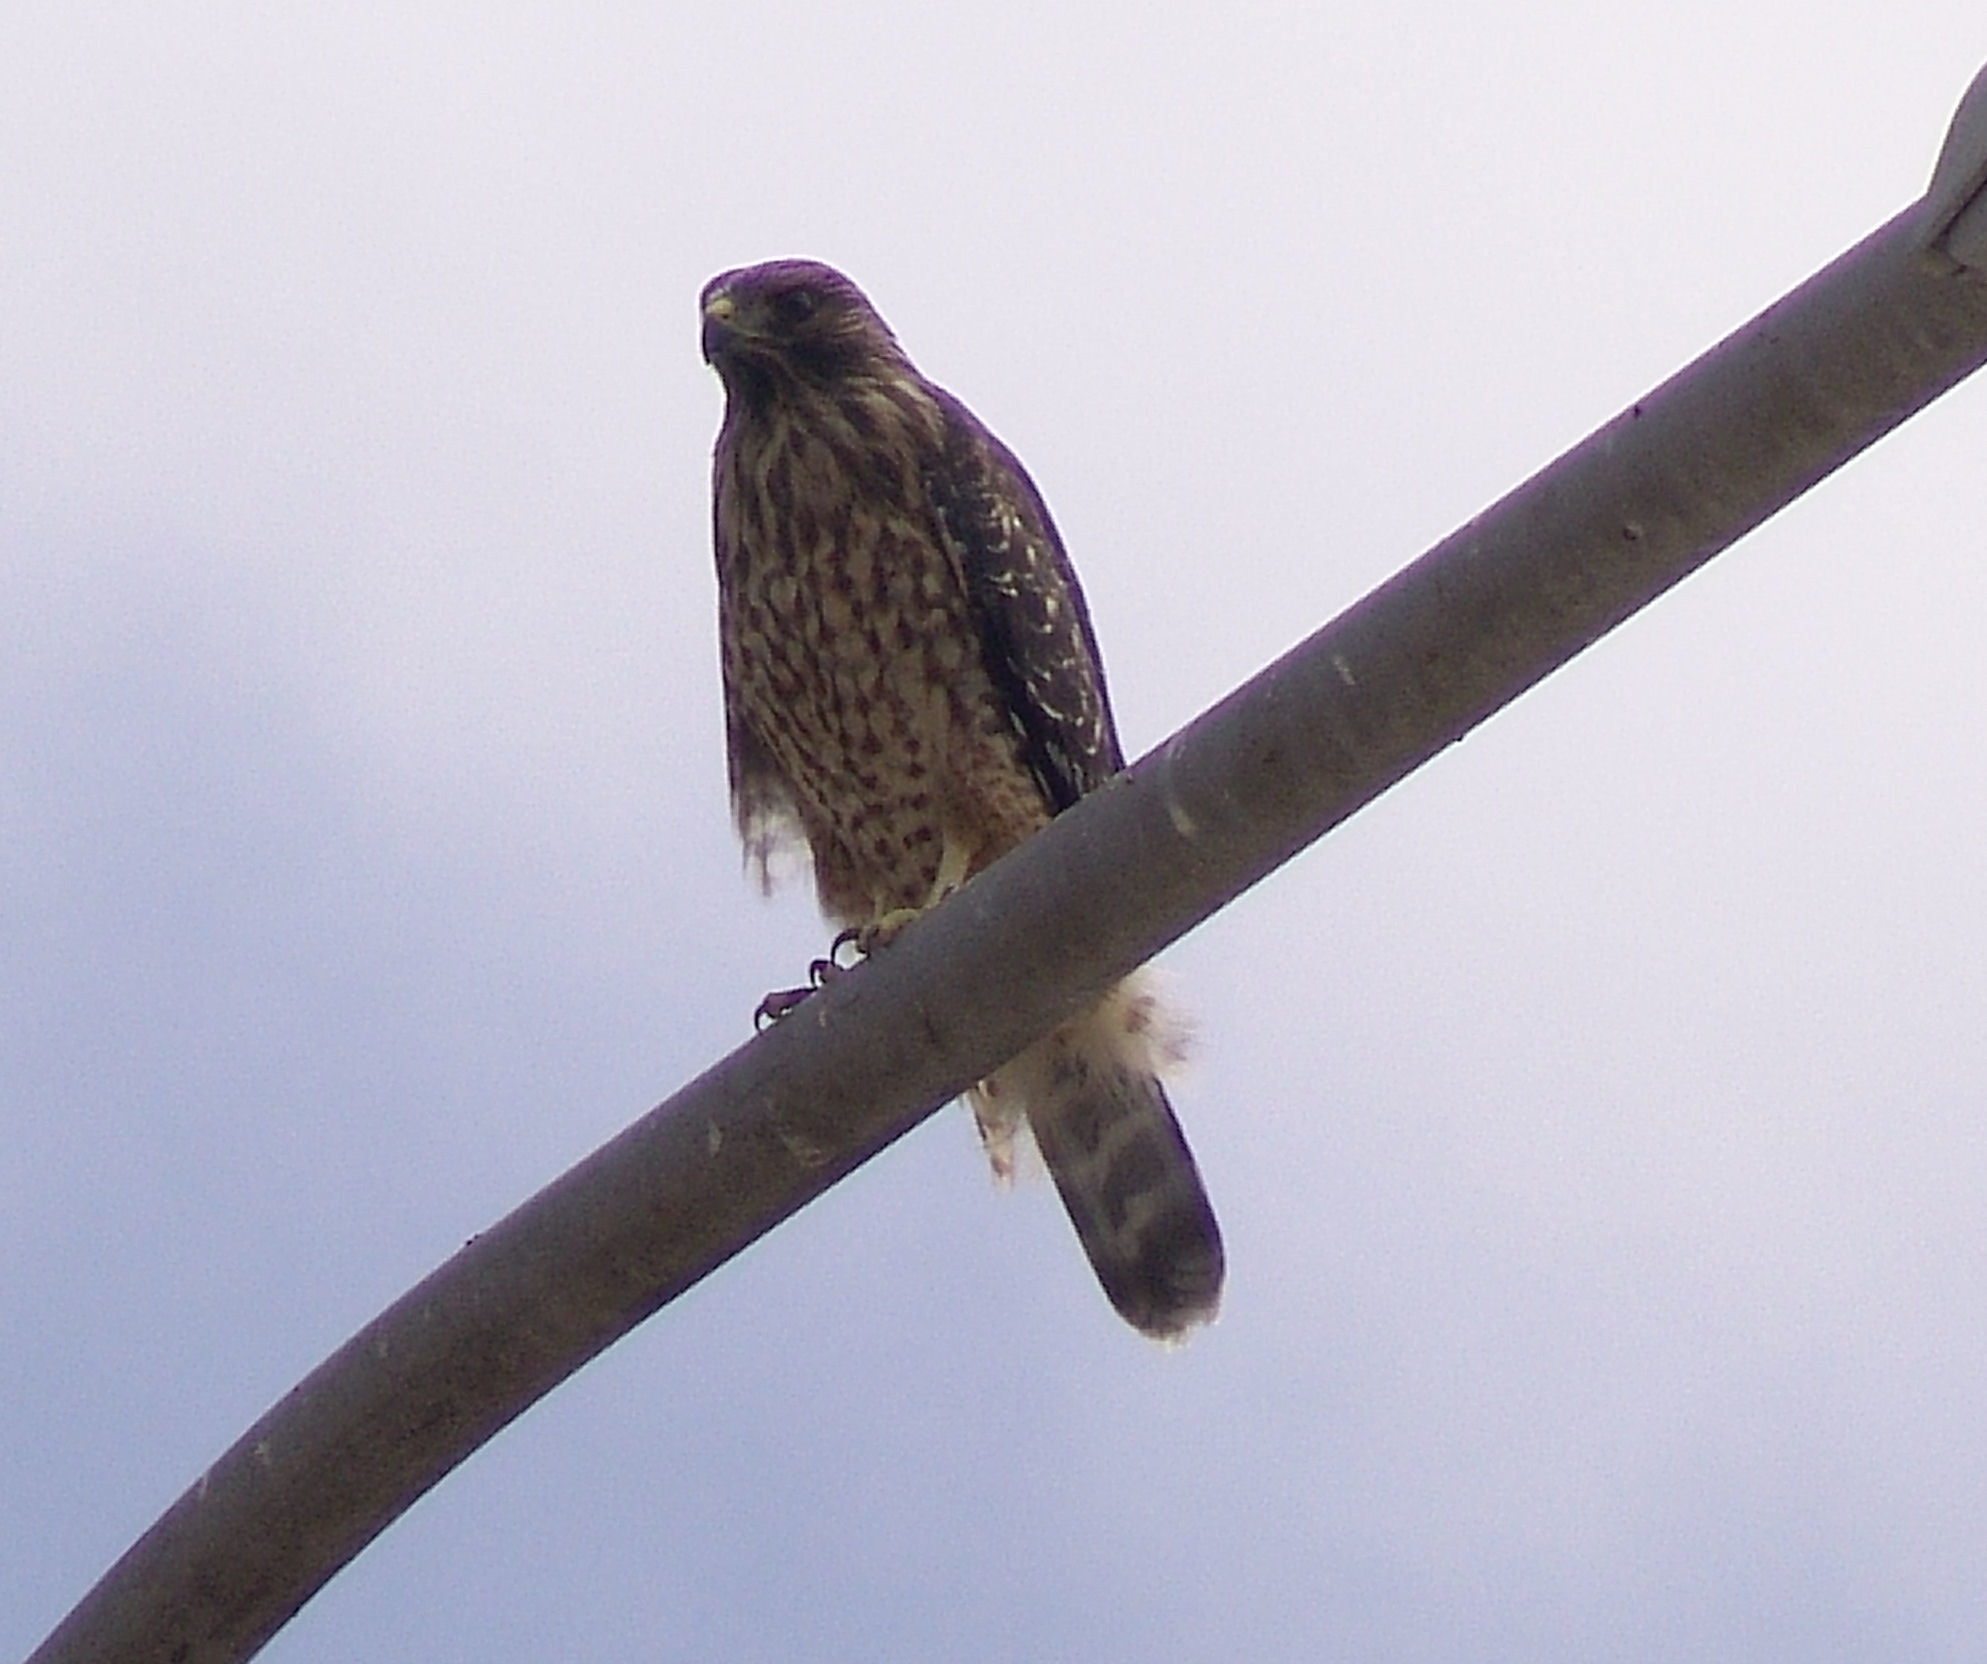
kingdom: Animalia
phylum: Chordata
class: Aves
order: Accipitriformes
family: Accipitridae
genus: Buteo
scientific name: Buteo lineatus
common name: Red-shouldered hawk
